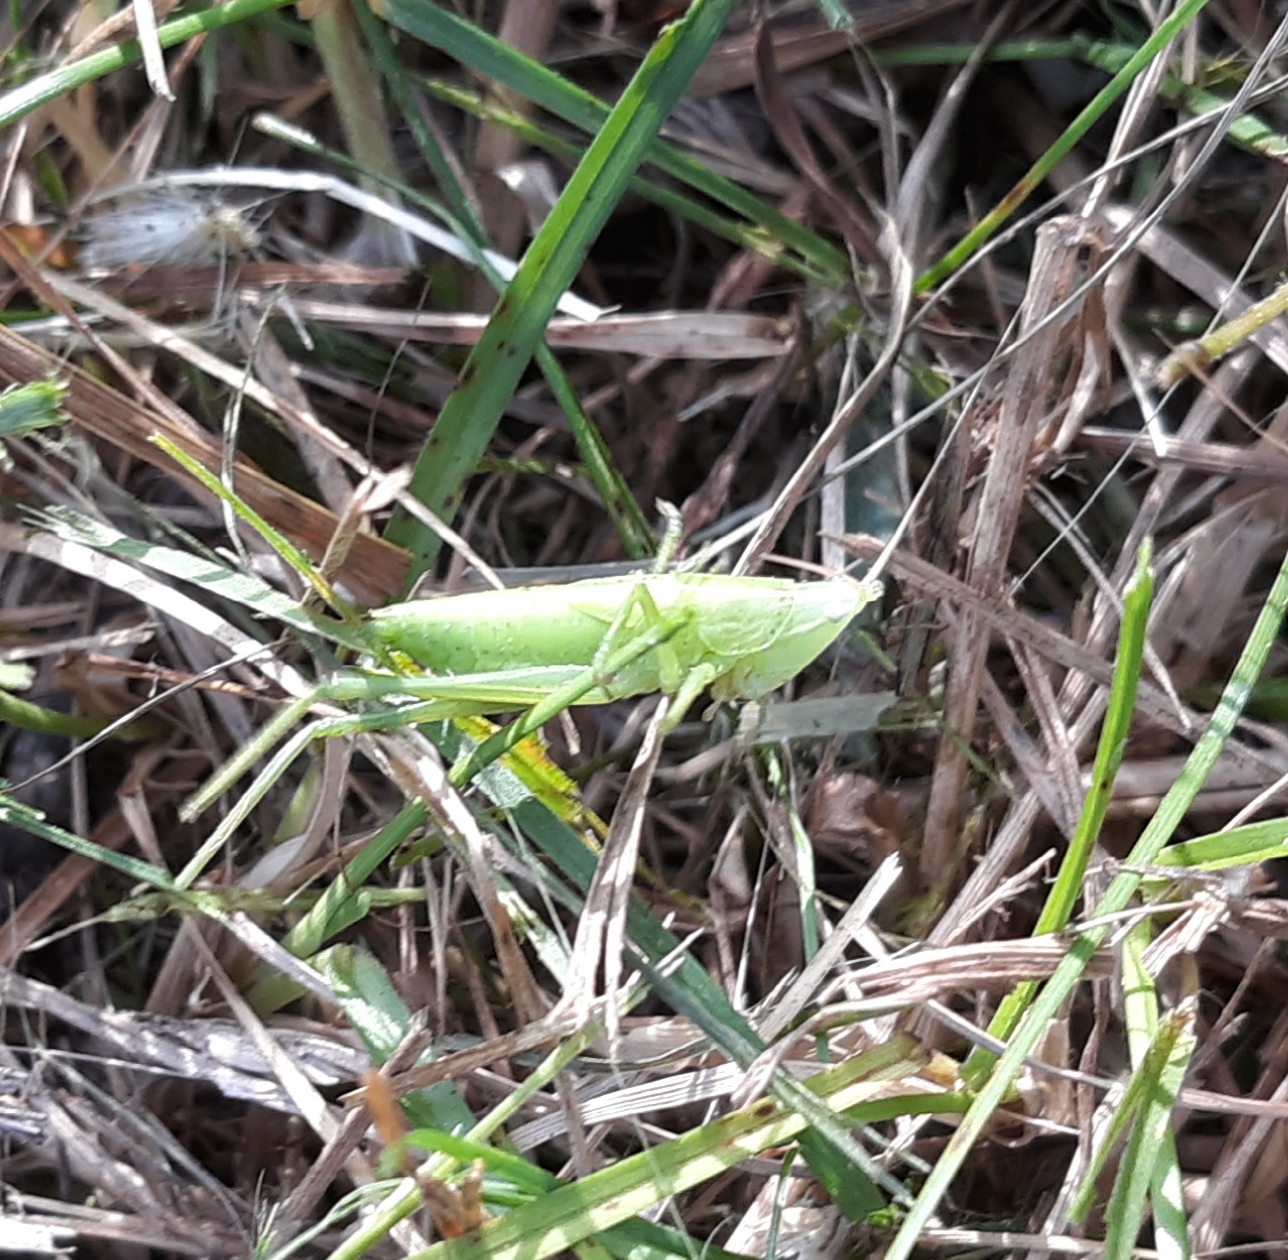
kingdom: Animalia
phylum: Arthropoda
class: Insecta
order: Orthoptera
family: Tettigoniidae
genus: Neoconocephalus
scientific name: Neoconocephalus ensiger
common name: Swordbearer
